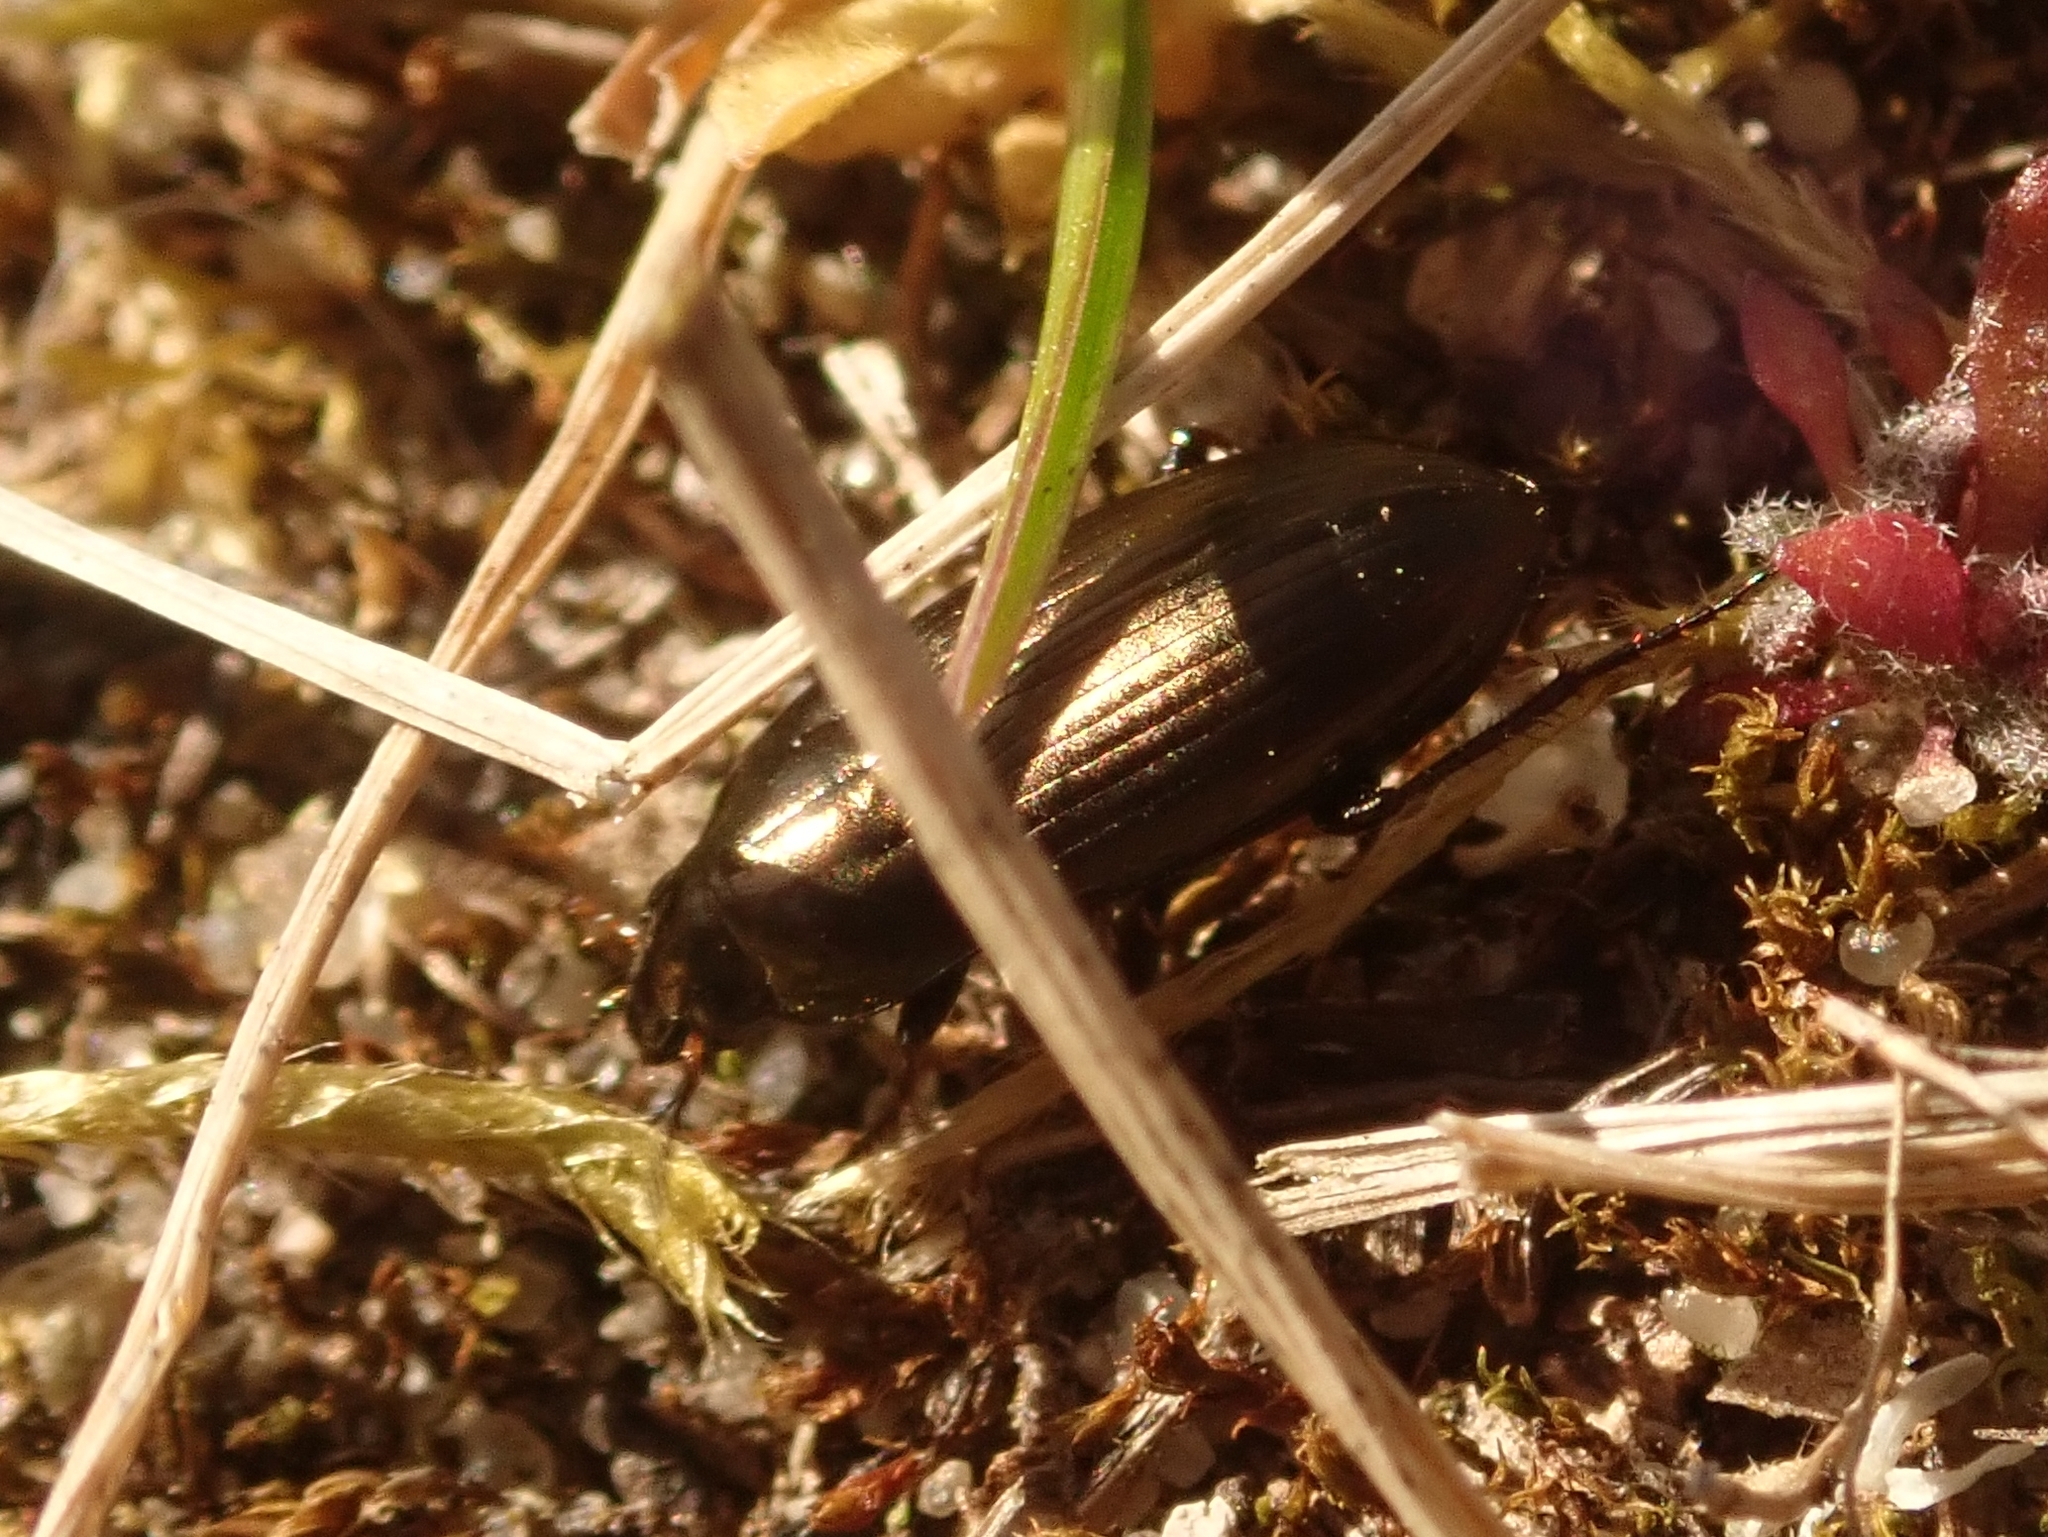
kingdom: Animalia
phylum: Arthropoda
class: Insecta
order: Coleoptera
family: Carabidae
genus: Amara
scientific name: Amara aenea
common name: Common sun beetle
